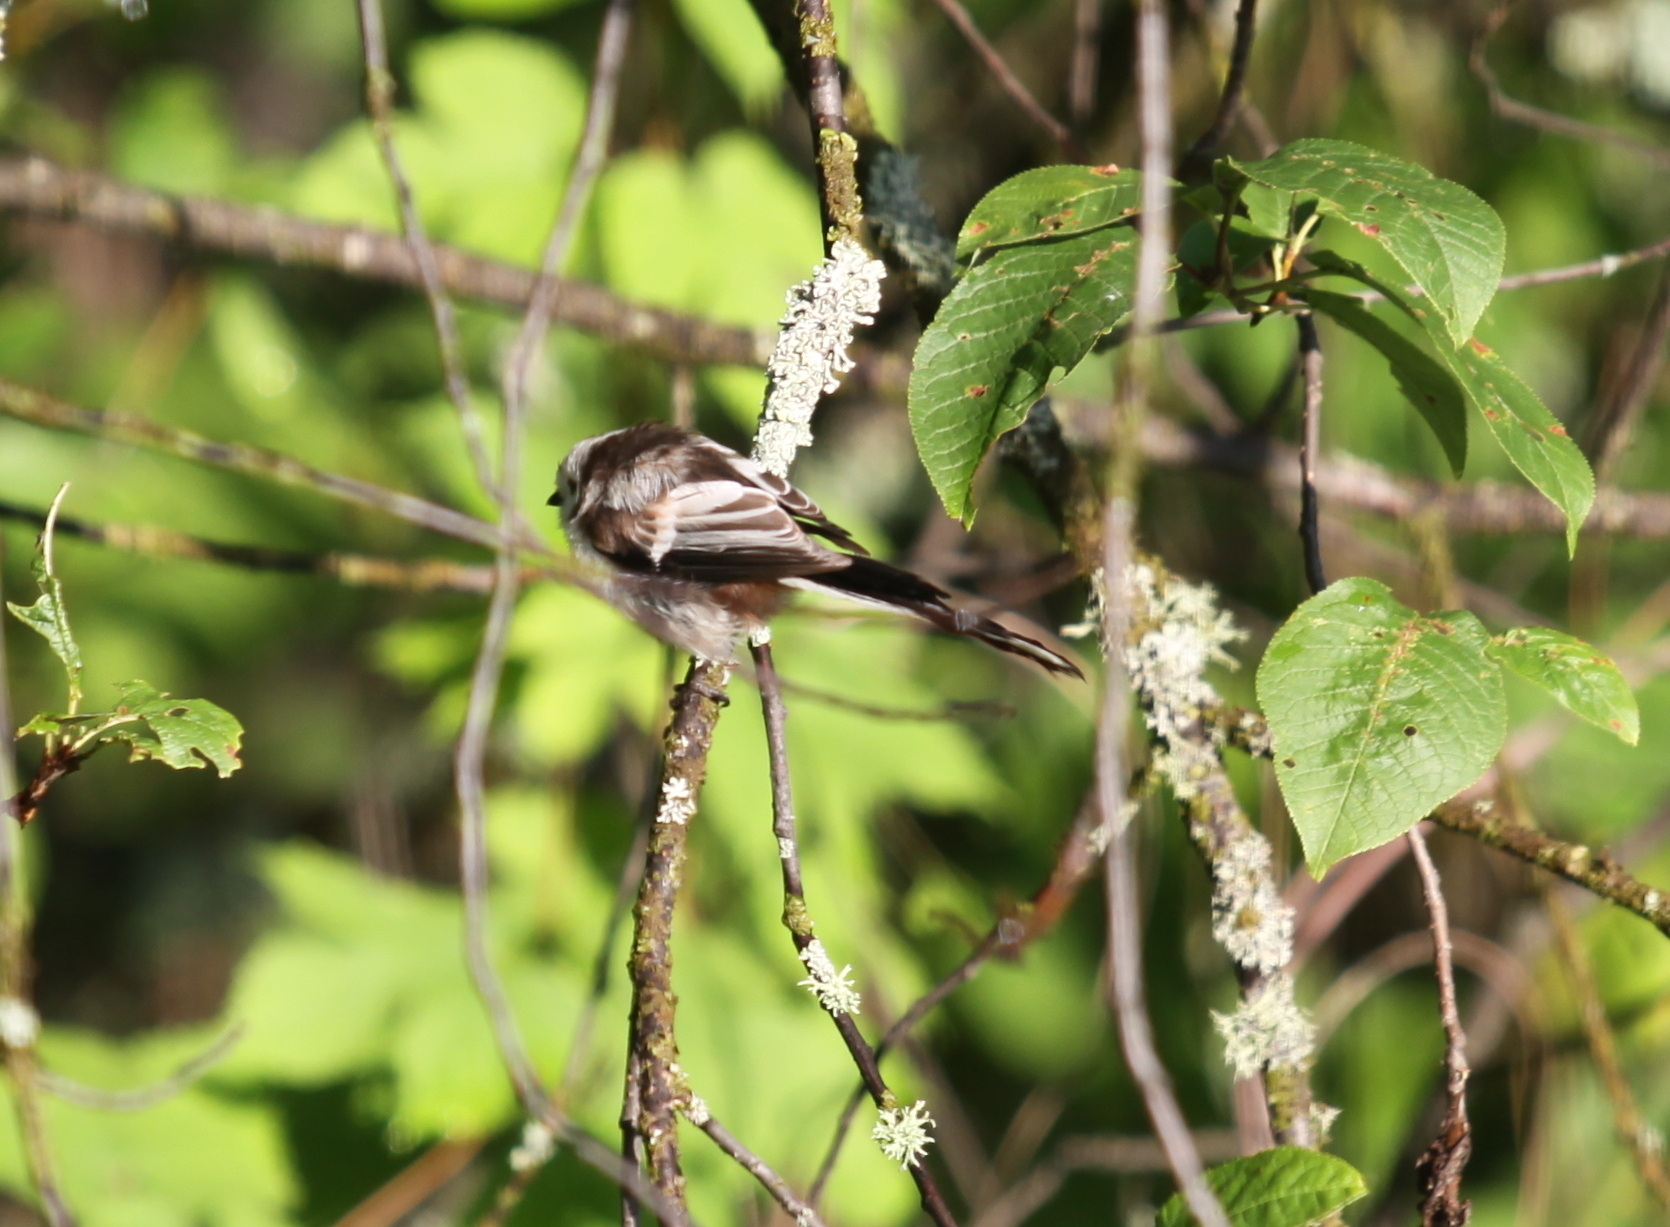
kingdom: Animalia
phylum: Chordata
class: Aves
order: Passeriformes
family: Aegithalidae
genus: Aegithalos
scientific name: Aegithalos caudatus
